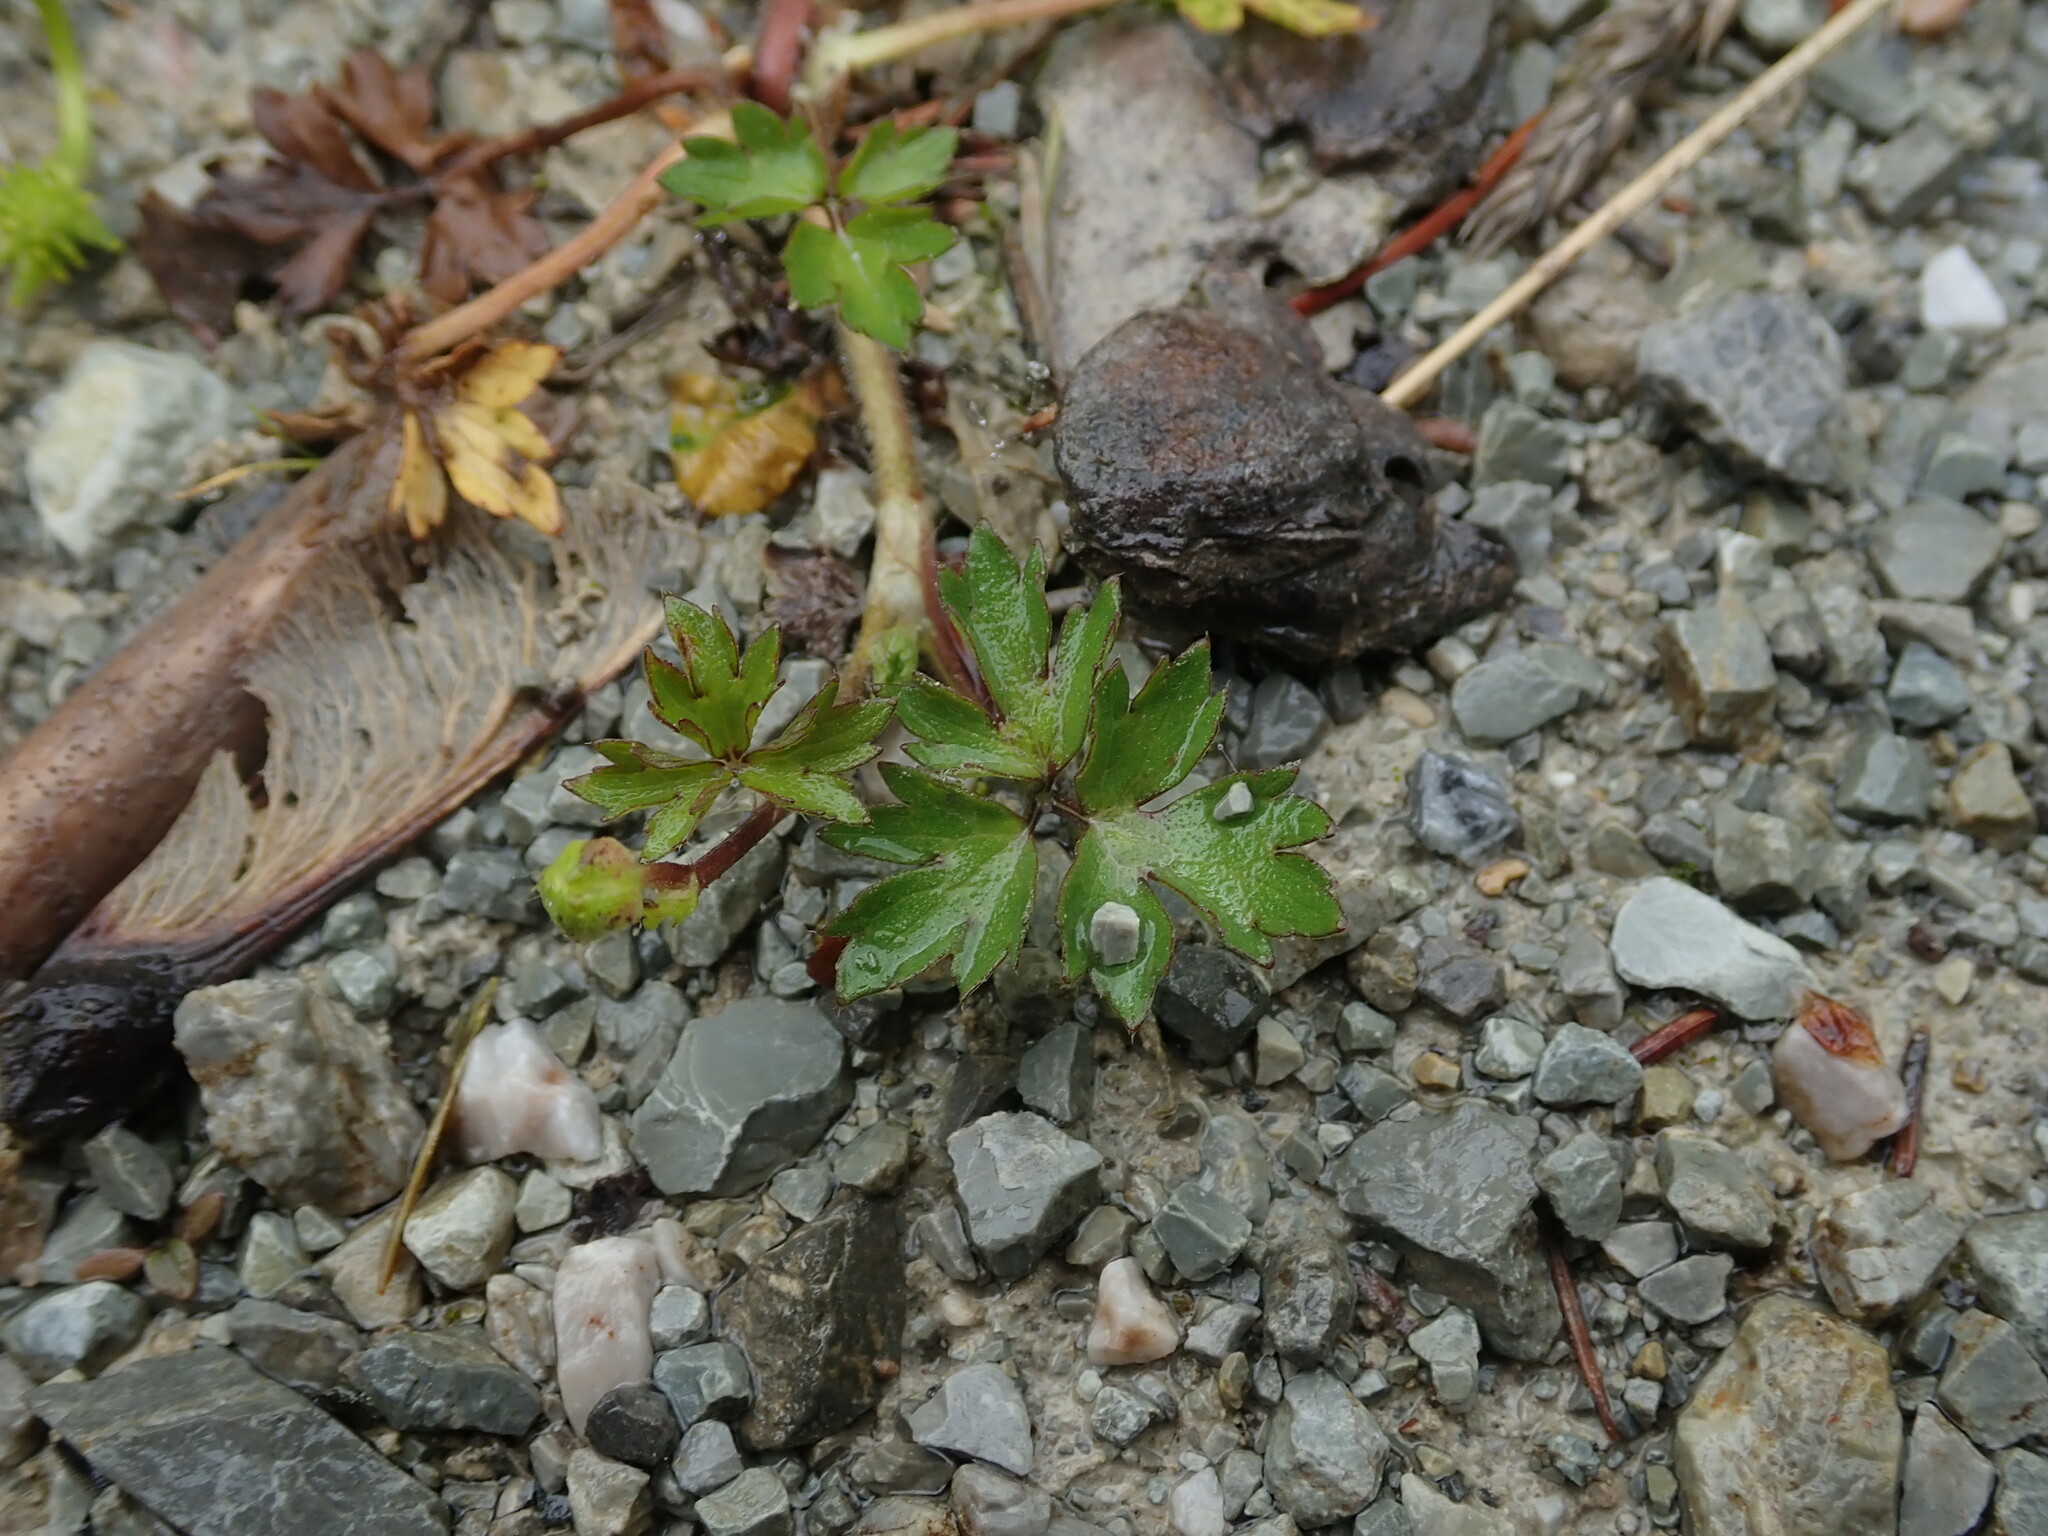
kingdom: Plantae
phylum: Tracheophyta
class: Magnoliopsida
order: Ranunculales
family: Ranunculaceae
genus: Ranunculus
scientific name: Ranunculus repens
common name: Creeping buttercup
